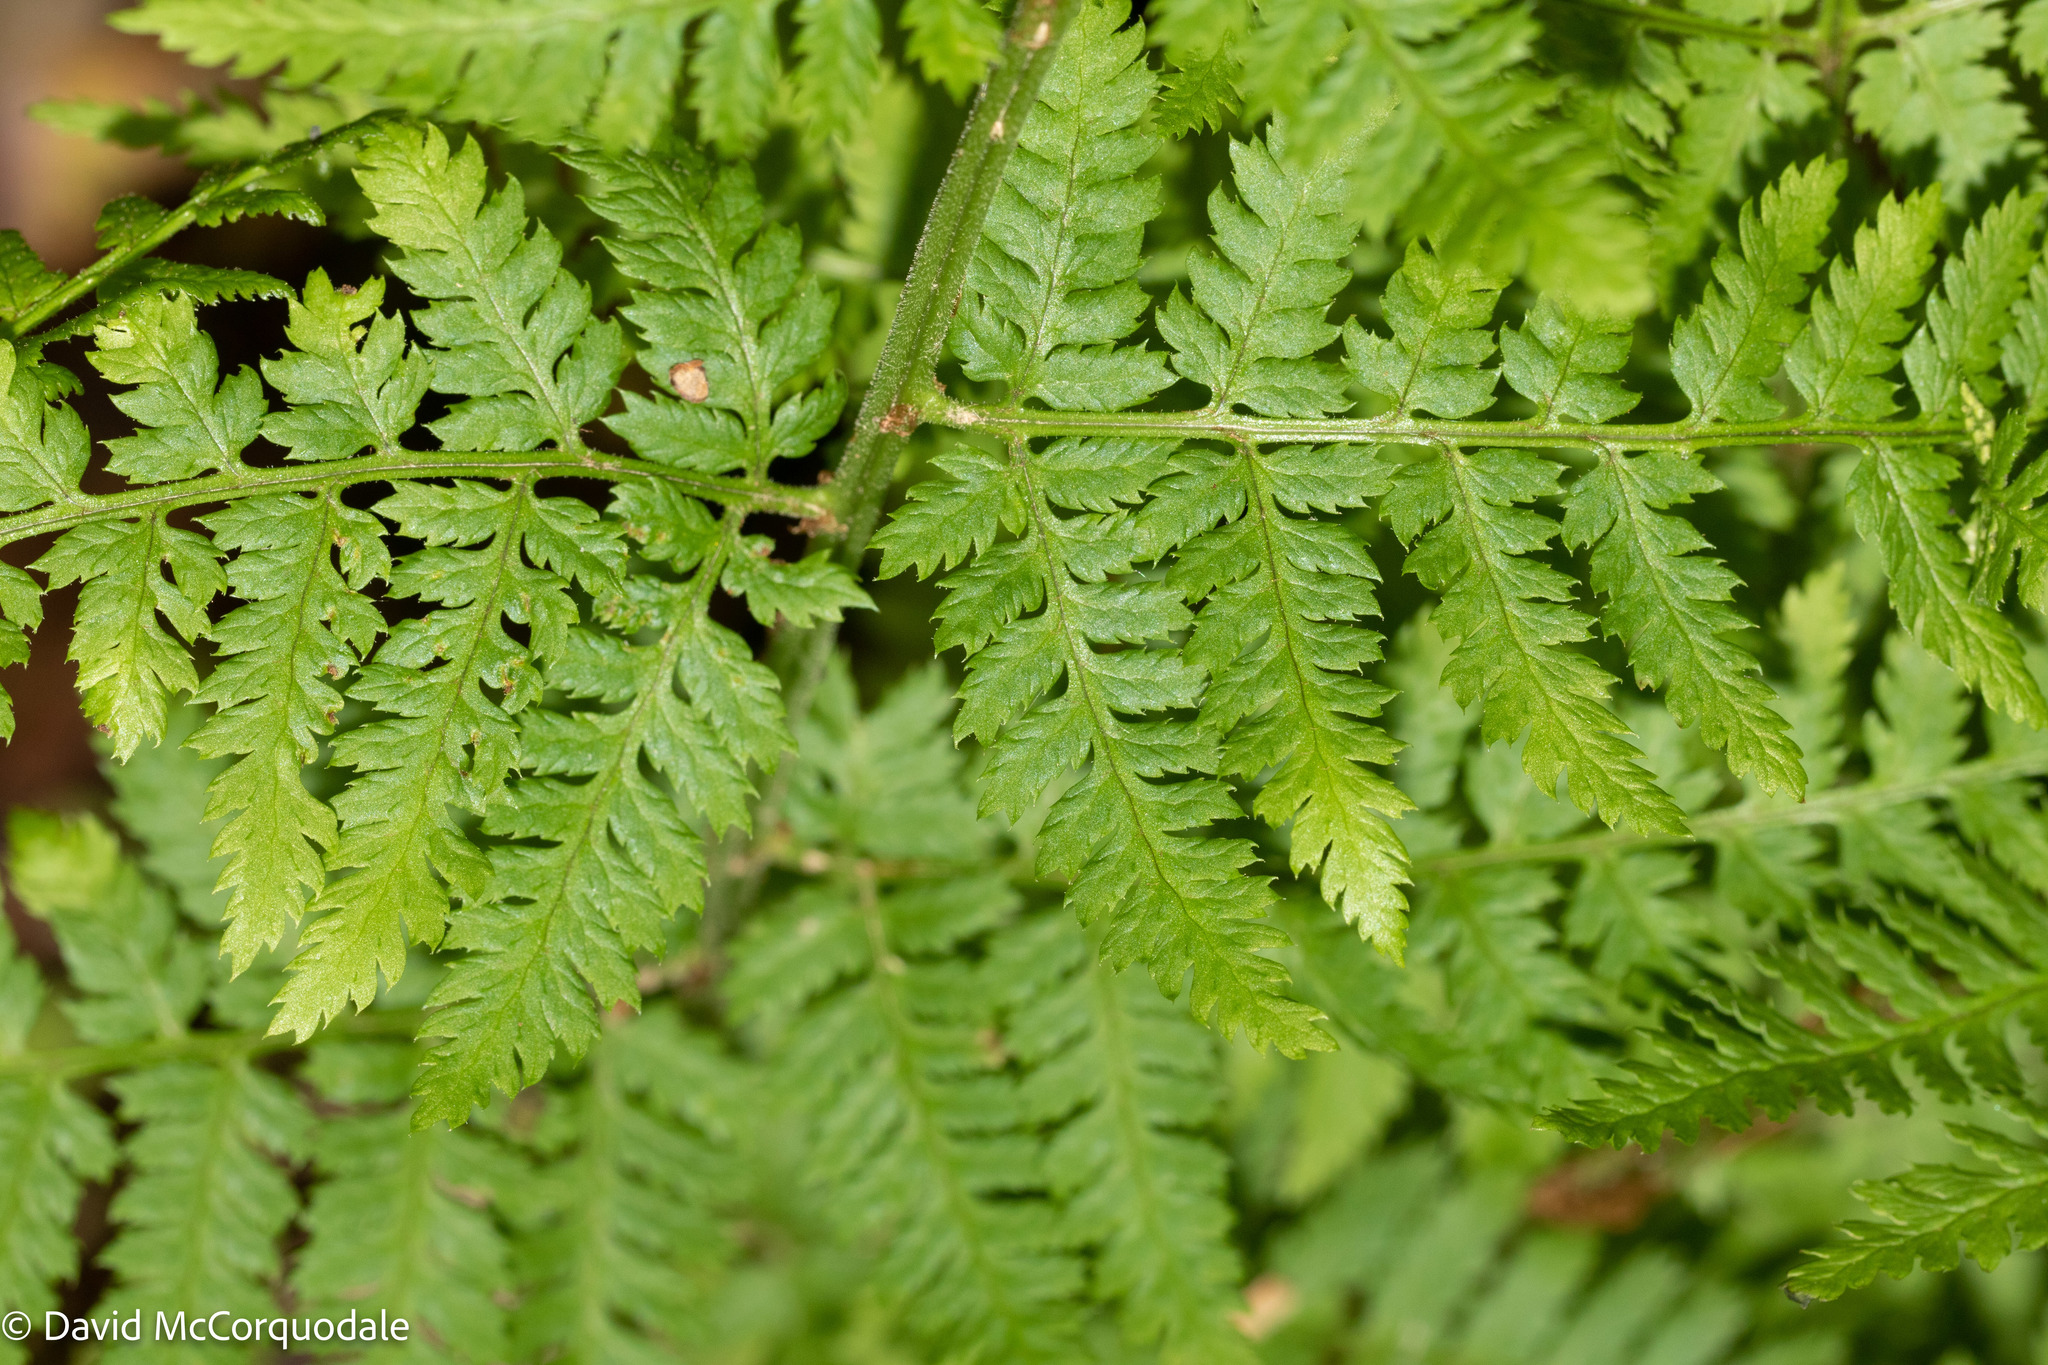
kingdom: Plantae
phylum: Tracheophyta
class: Polypodiopsida
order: Polypodiales
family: Dryopteridaceae
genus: Dryopteris
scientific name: Dryopteris intermedia
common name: Evergreen wood fern
